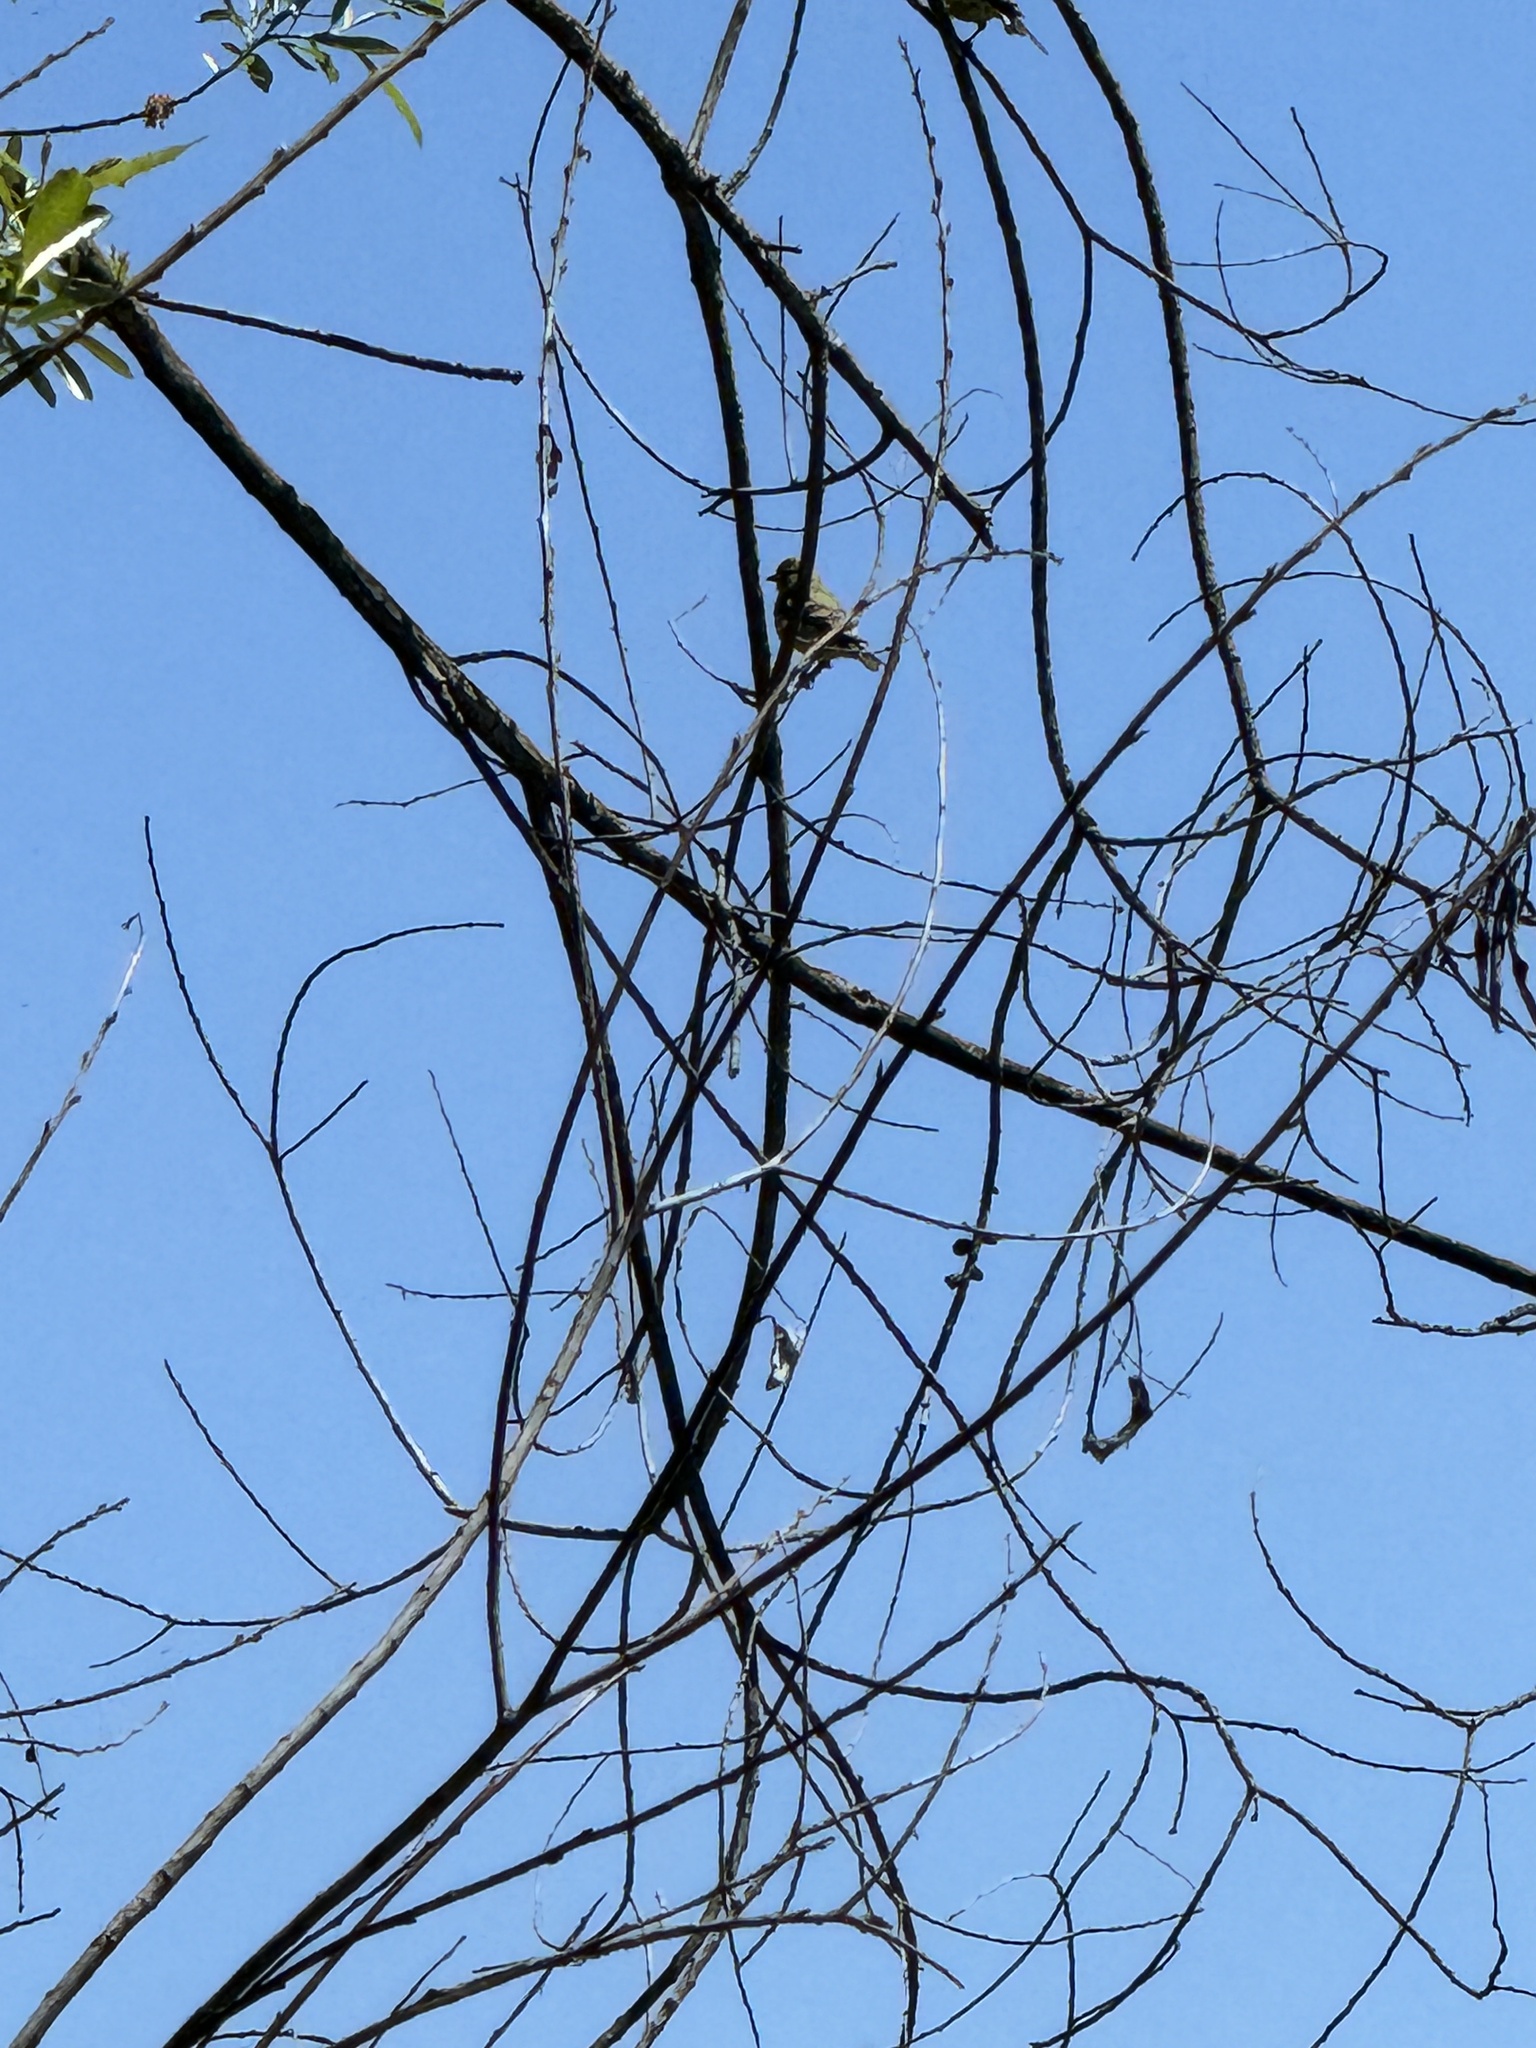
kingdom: Animalia
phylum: Chordata
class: Aves
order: Passeriformes
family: Fringillidae
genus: Spinus
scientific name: Spinus psaltria
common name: Lesser goldfinch
